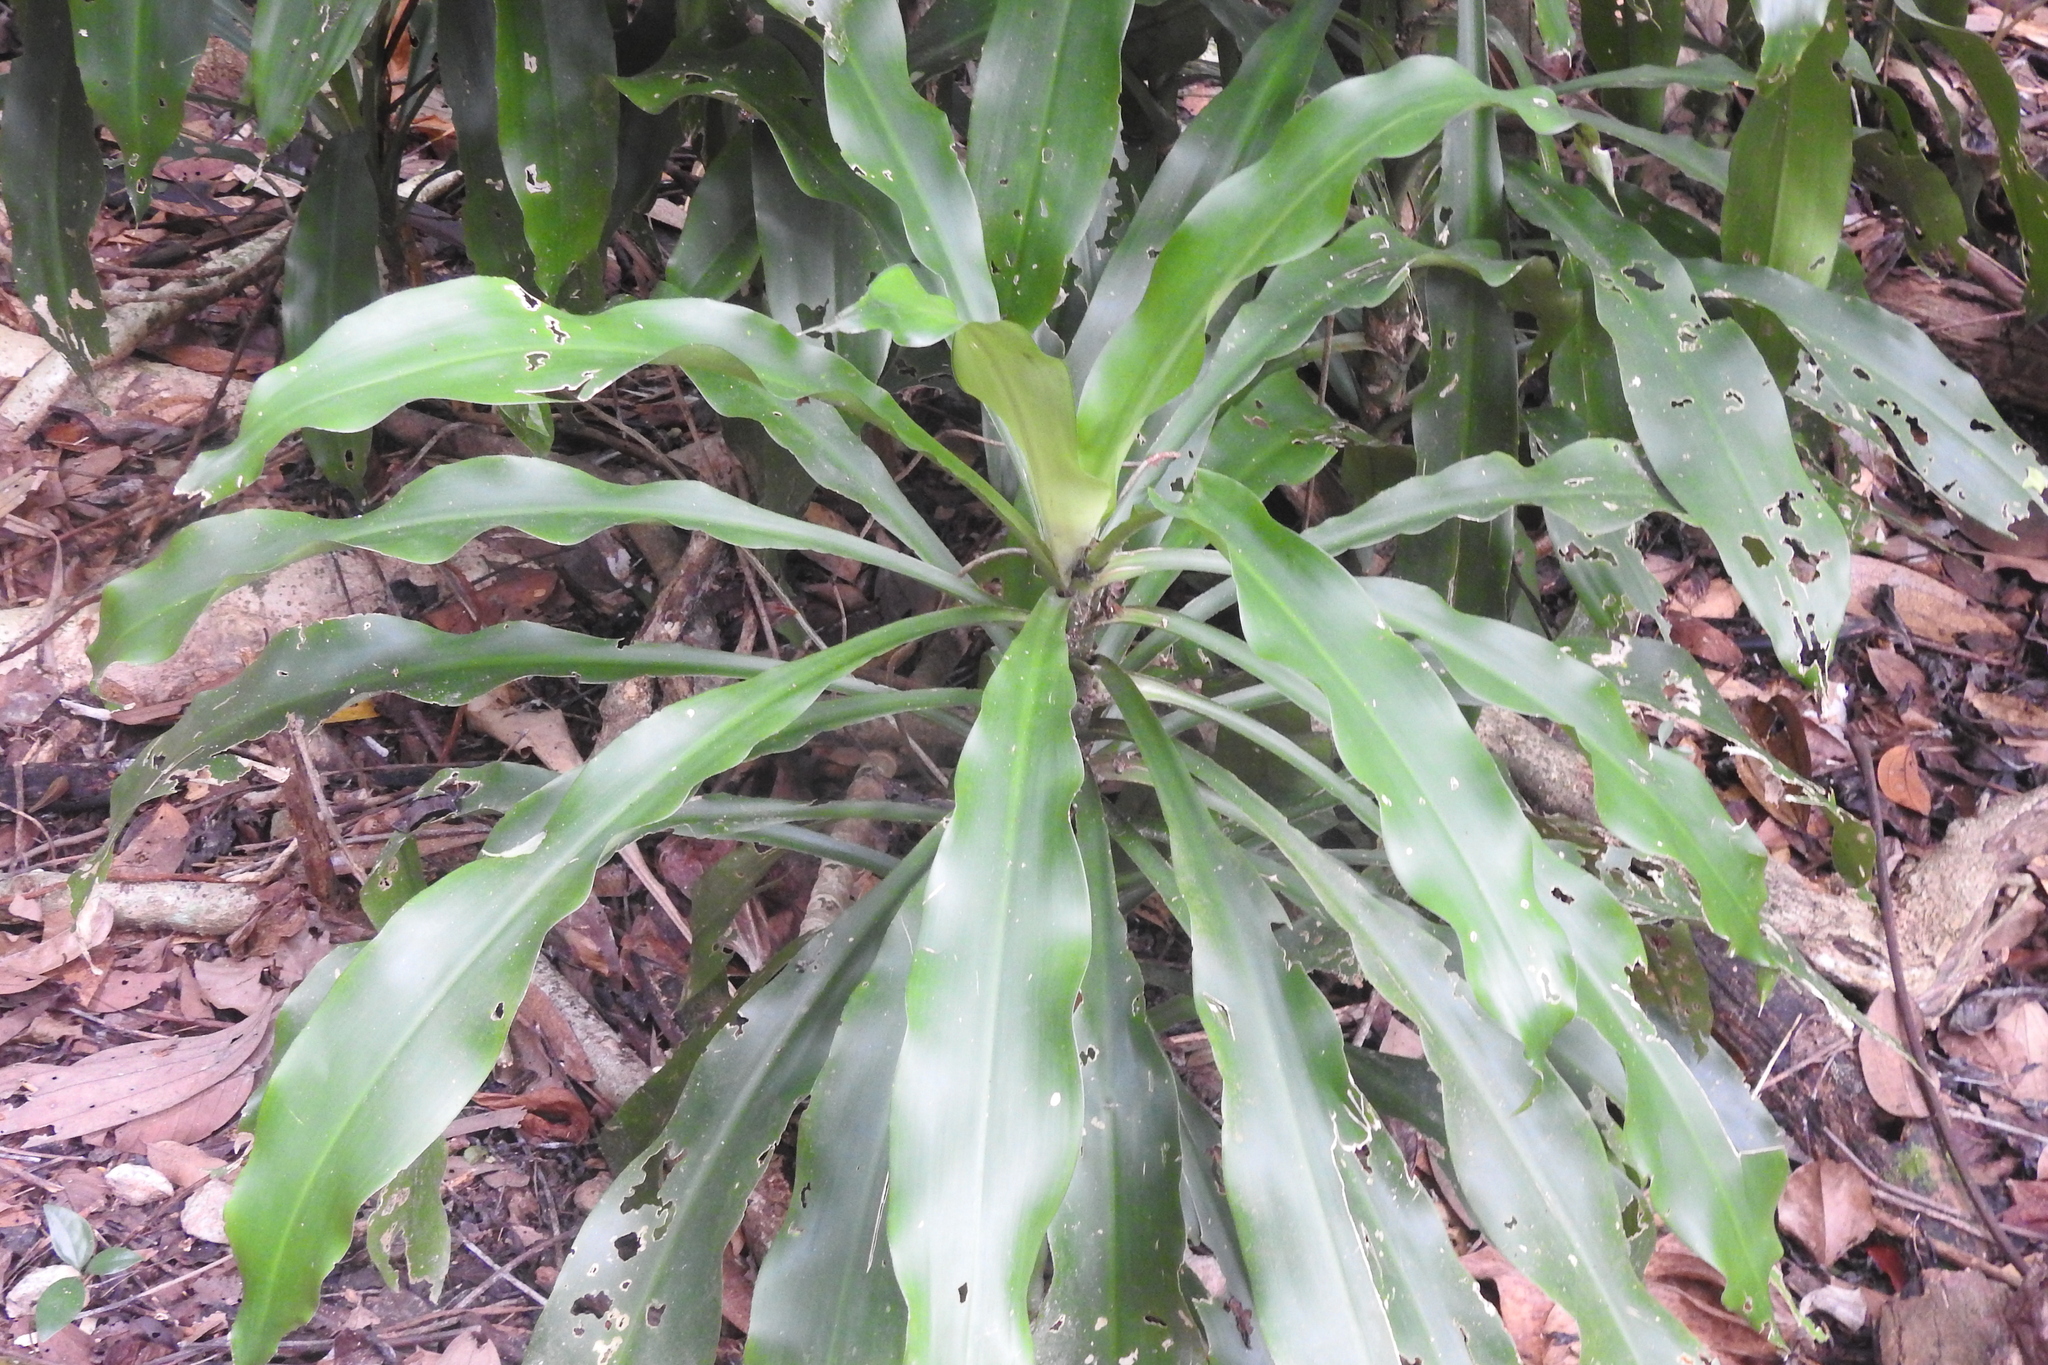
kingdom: Plantae
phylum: Tracheophyta
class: Liliopsida
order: Asparagales
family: Asparagaceae
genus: Dracaena
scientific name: Dracaena fragrans
